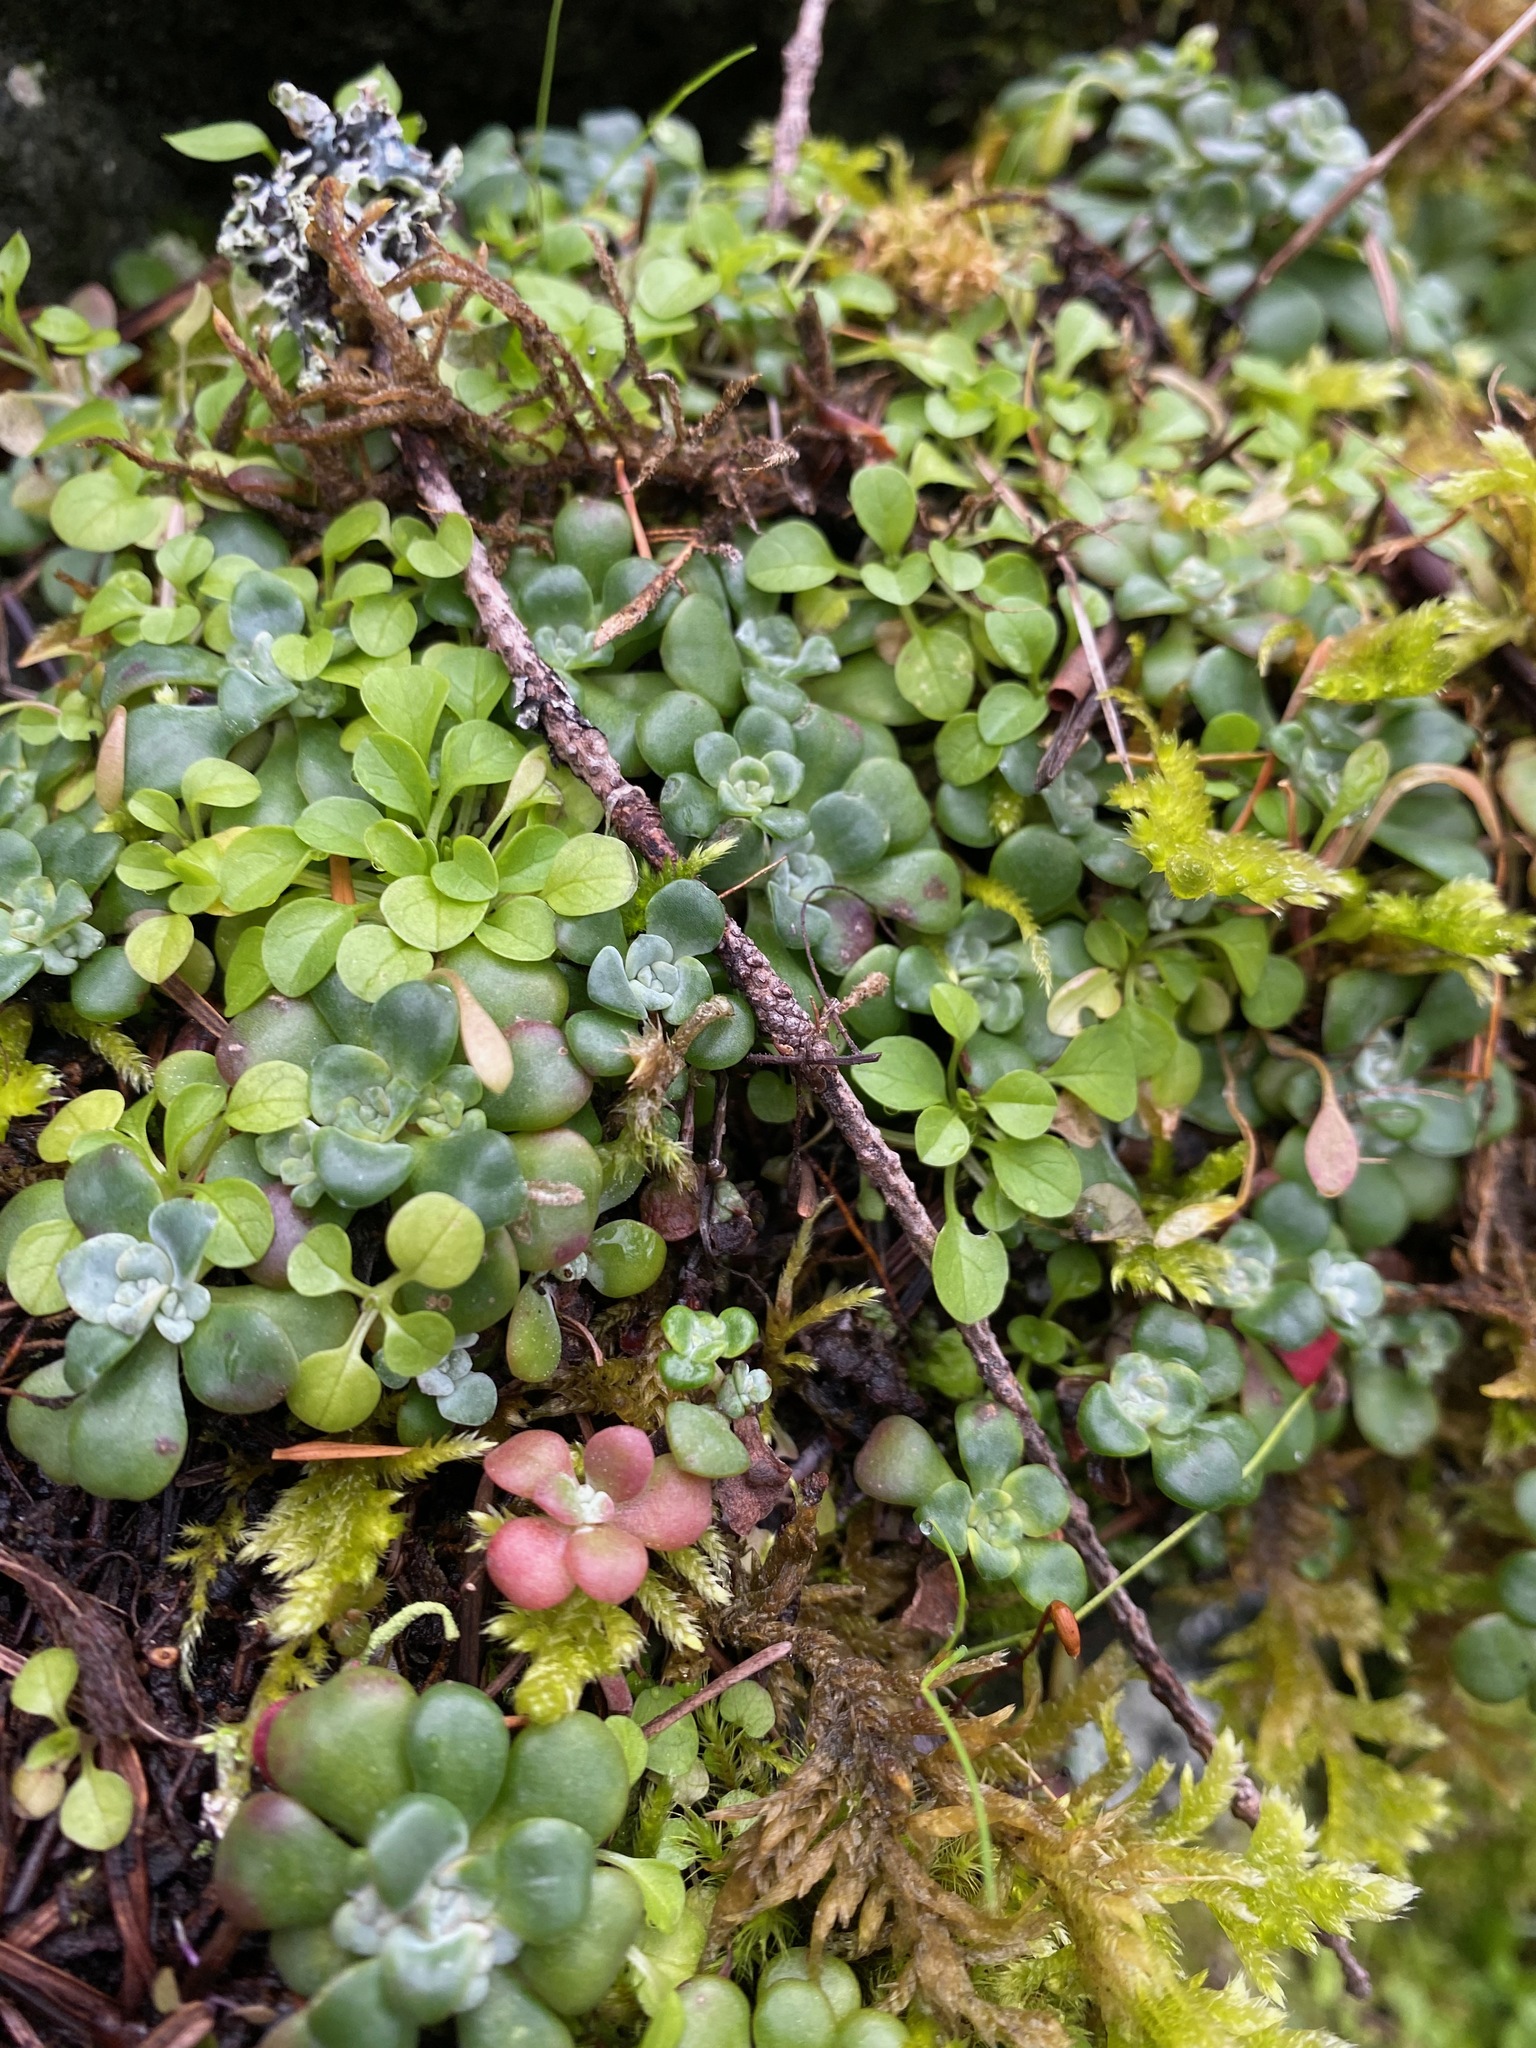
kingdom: Plantae
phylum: Tracheophyta
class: Magnoliopsida
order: Saxifragales
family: Crassulaceae
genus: Sedum
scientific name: Sedum spathulifolium
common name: Colorado stonecrop
